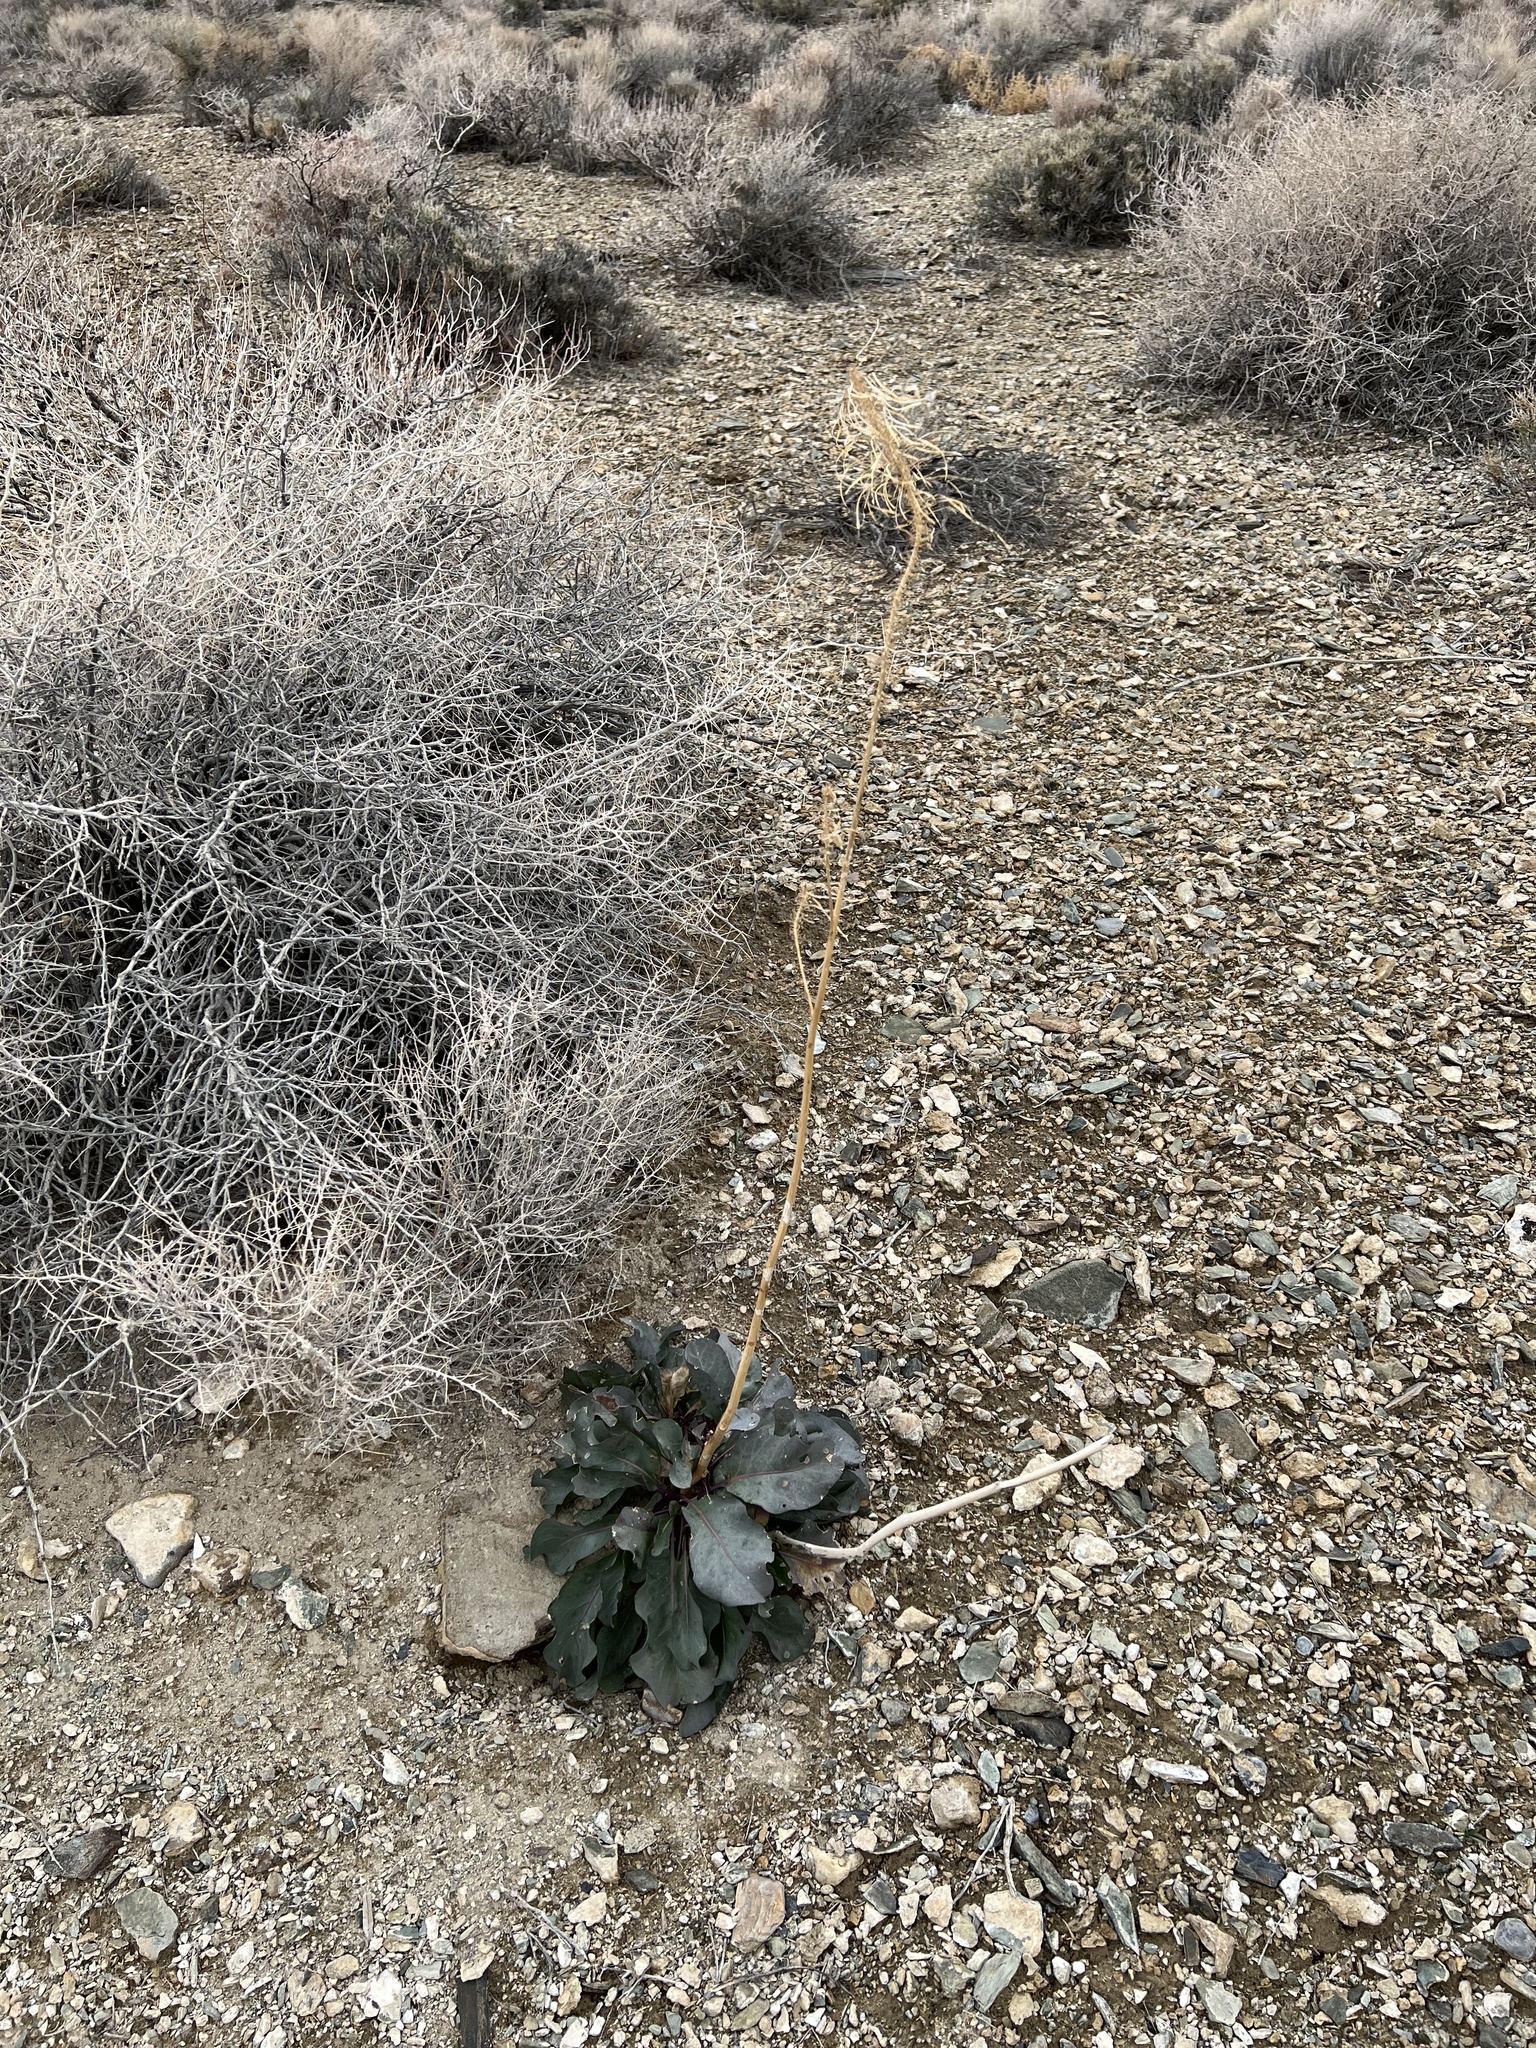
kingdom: Plantae
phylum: Tracheophyta
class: Magnoliopsida
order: Brassicales
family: Brassicaceae
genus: Stanleya
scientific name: Stanleya elata
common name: Panamint prince's plume
